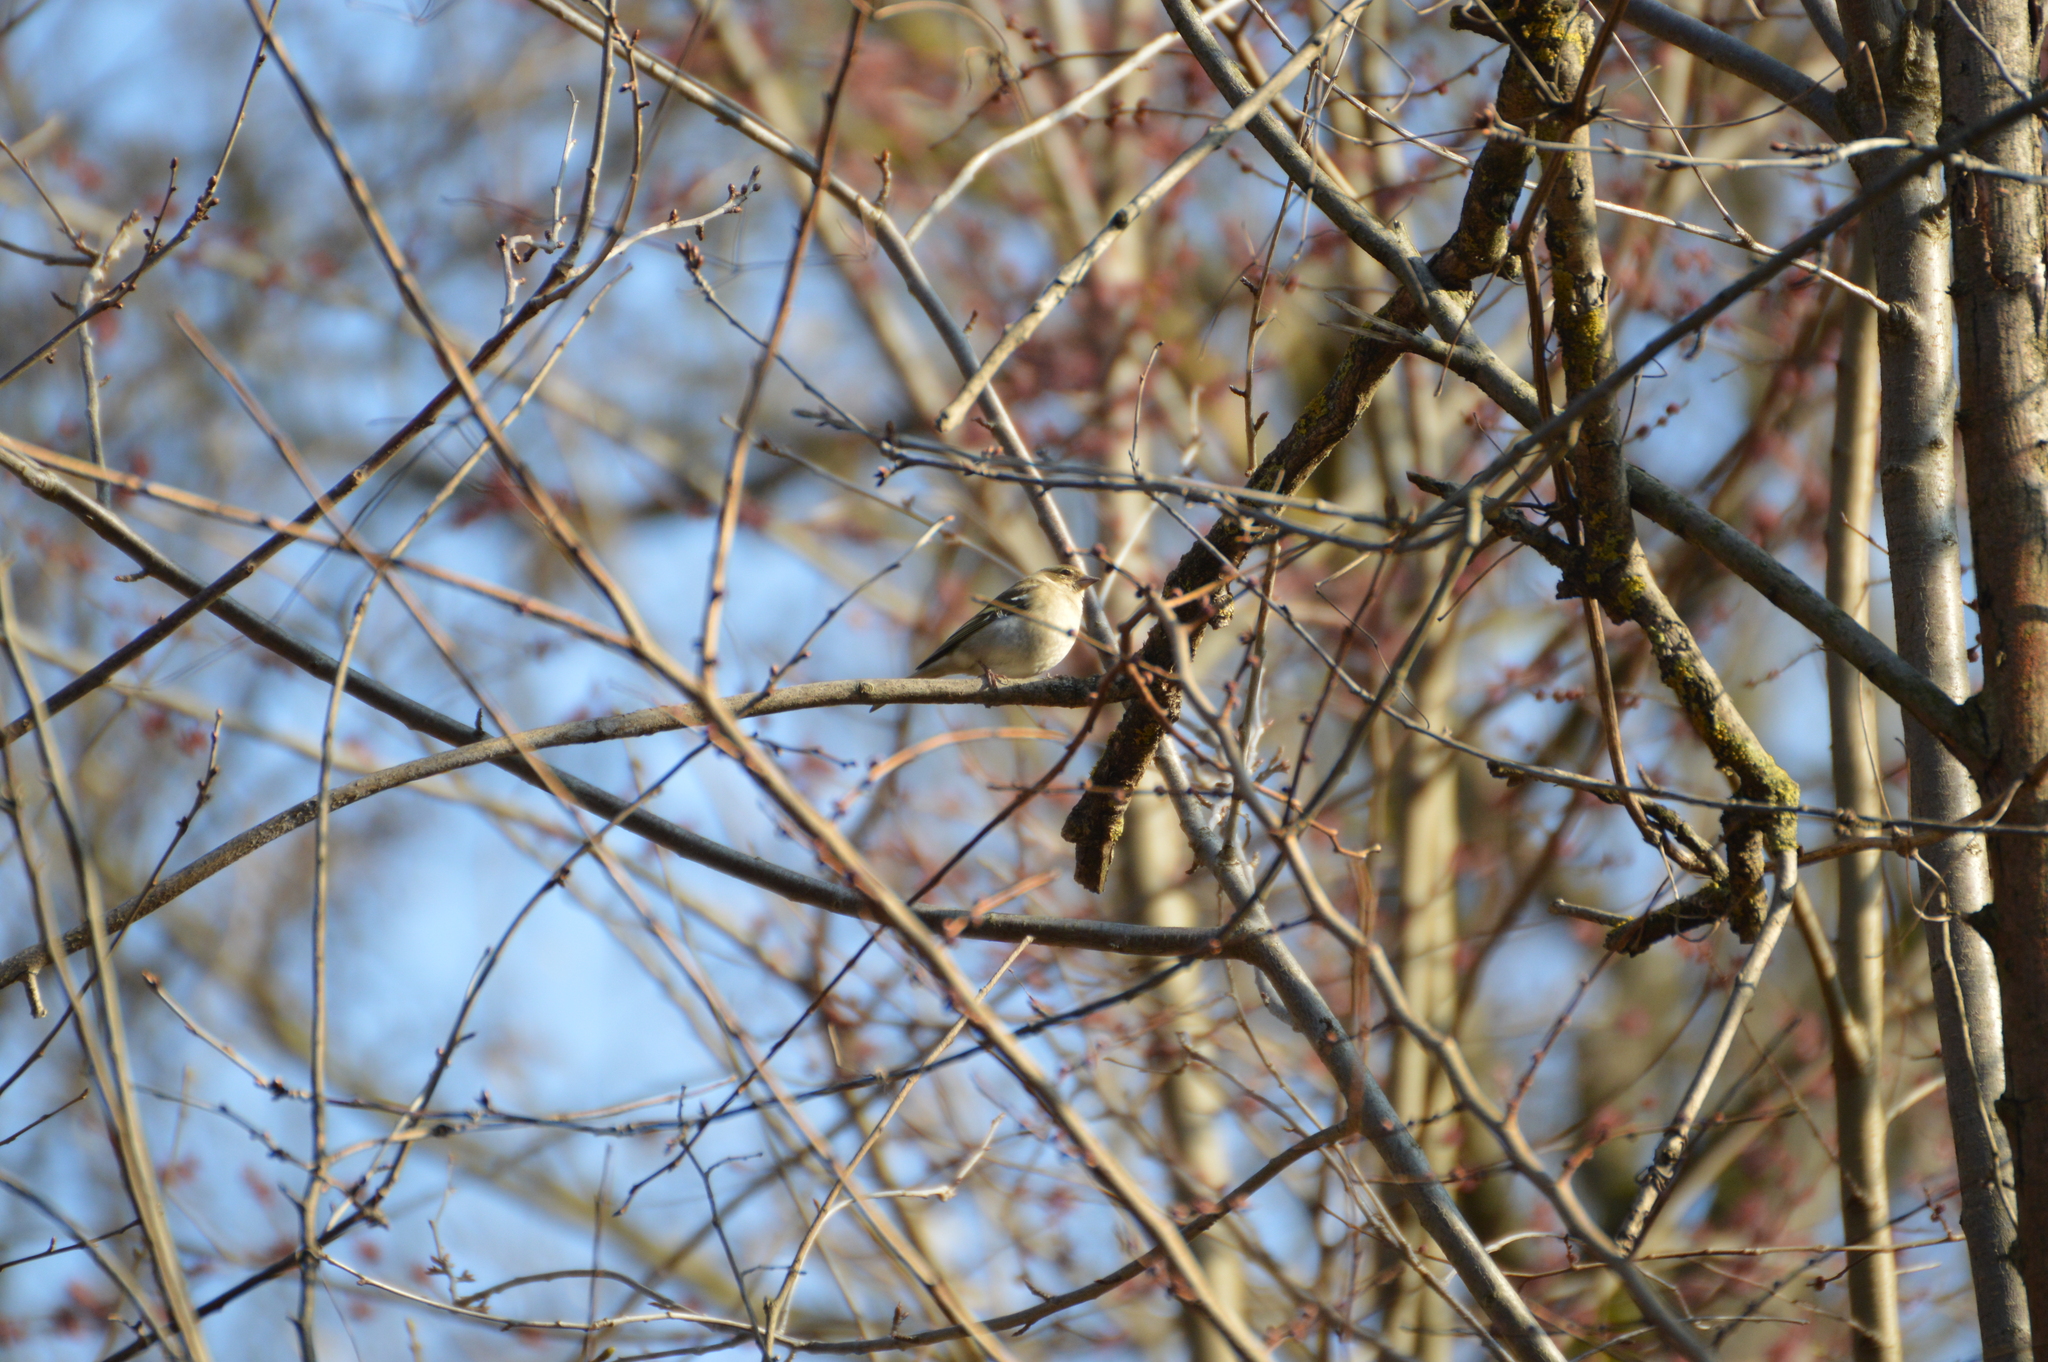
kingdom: Animalia
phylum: Chordata
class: Aves
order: Passeriformes
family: Fringillidae
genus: Fringilla
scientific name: Fringilla coelebs
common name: Common chaffinch
